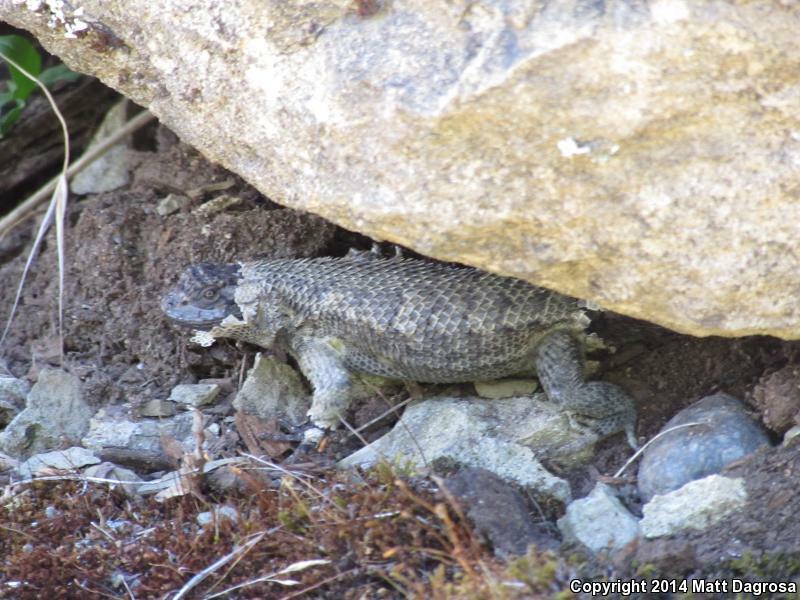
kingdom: Animalia
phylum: Chordata
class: Squamata
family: Phrynosomatidae
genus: Sceloporus
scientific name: Sceloporus occidentalis
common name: Western fence lizard
